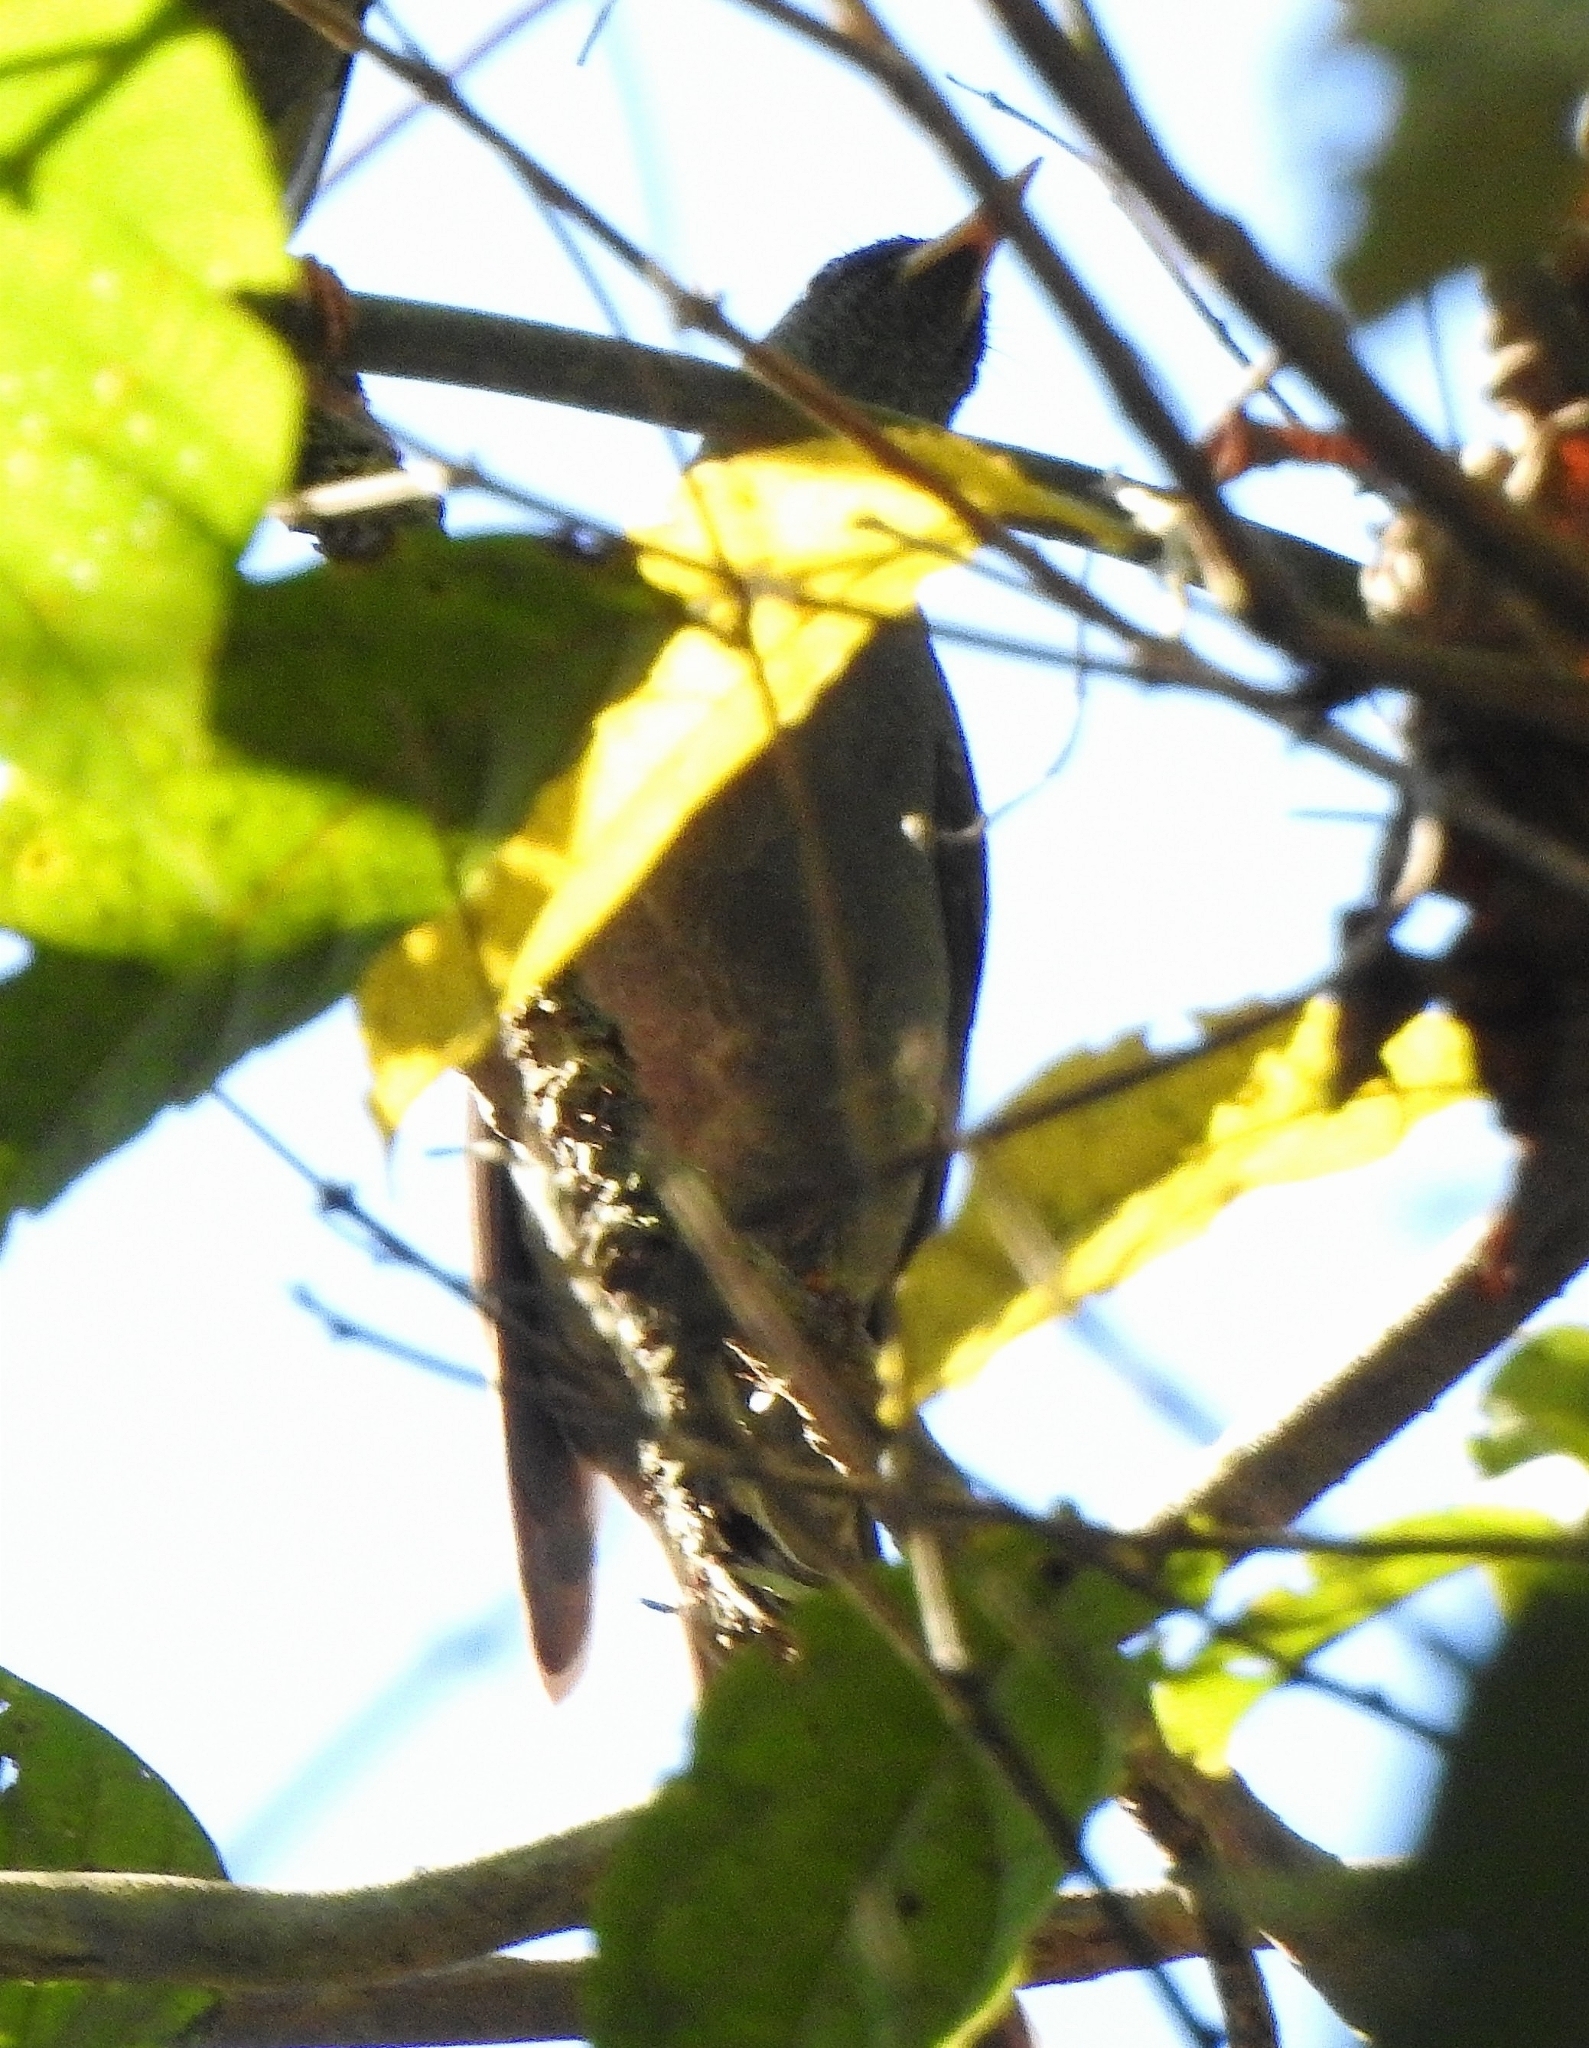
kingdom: Animalia
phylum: Chordata
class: Aves
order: Passeriformes
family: Pycnonotidae
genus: Hypsipetes
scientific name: Hypsipetes ganeesa
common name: Square-tailed bulbul
